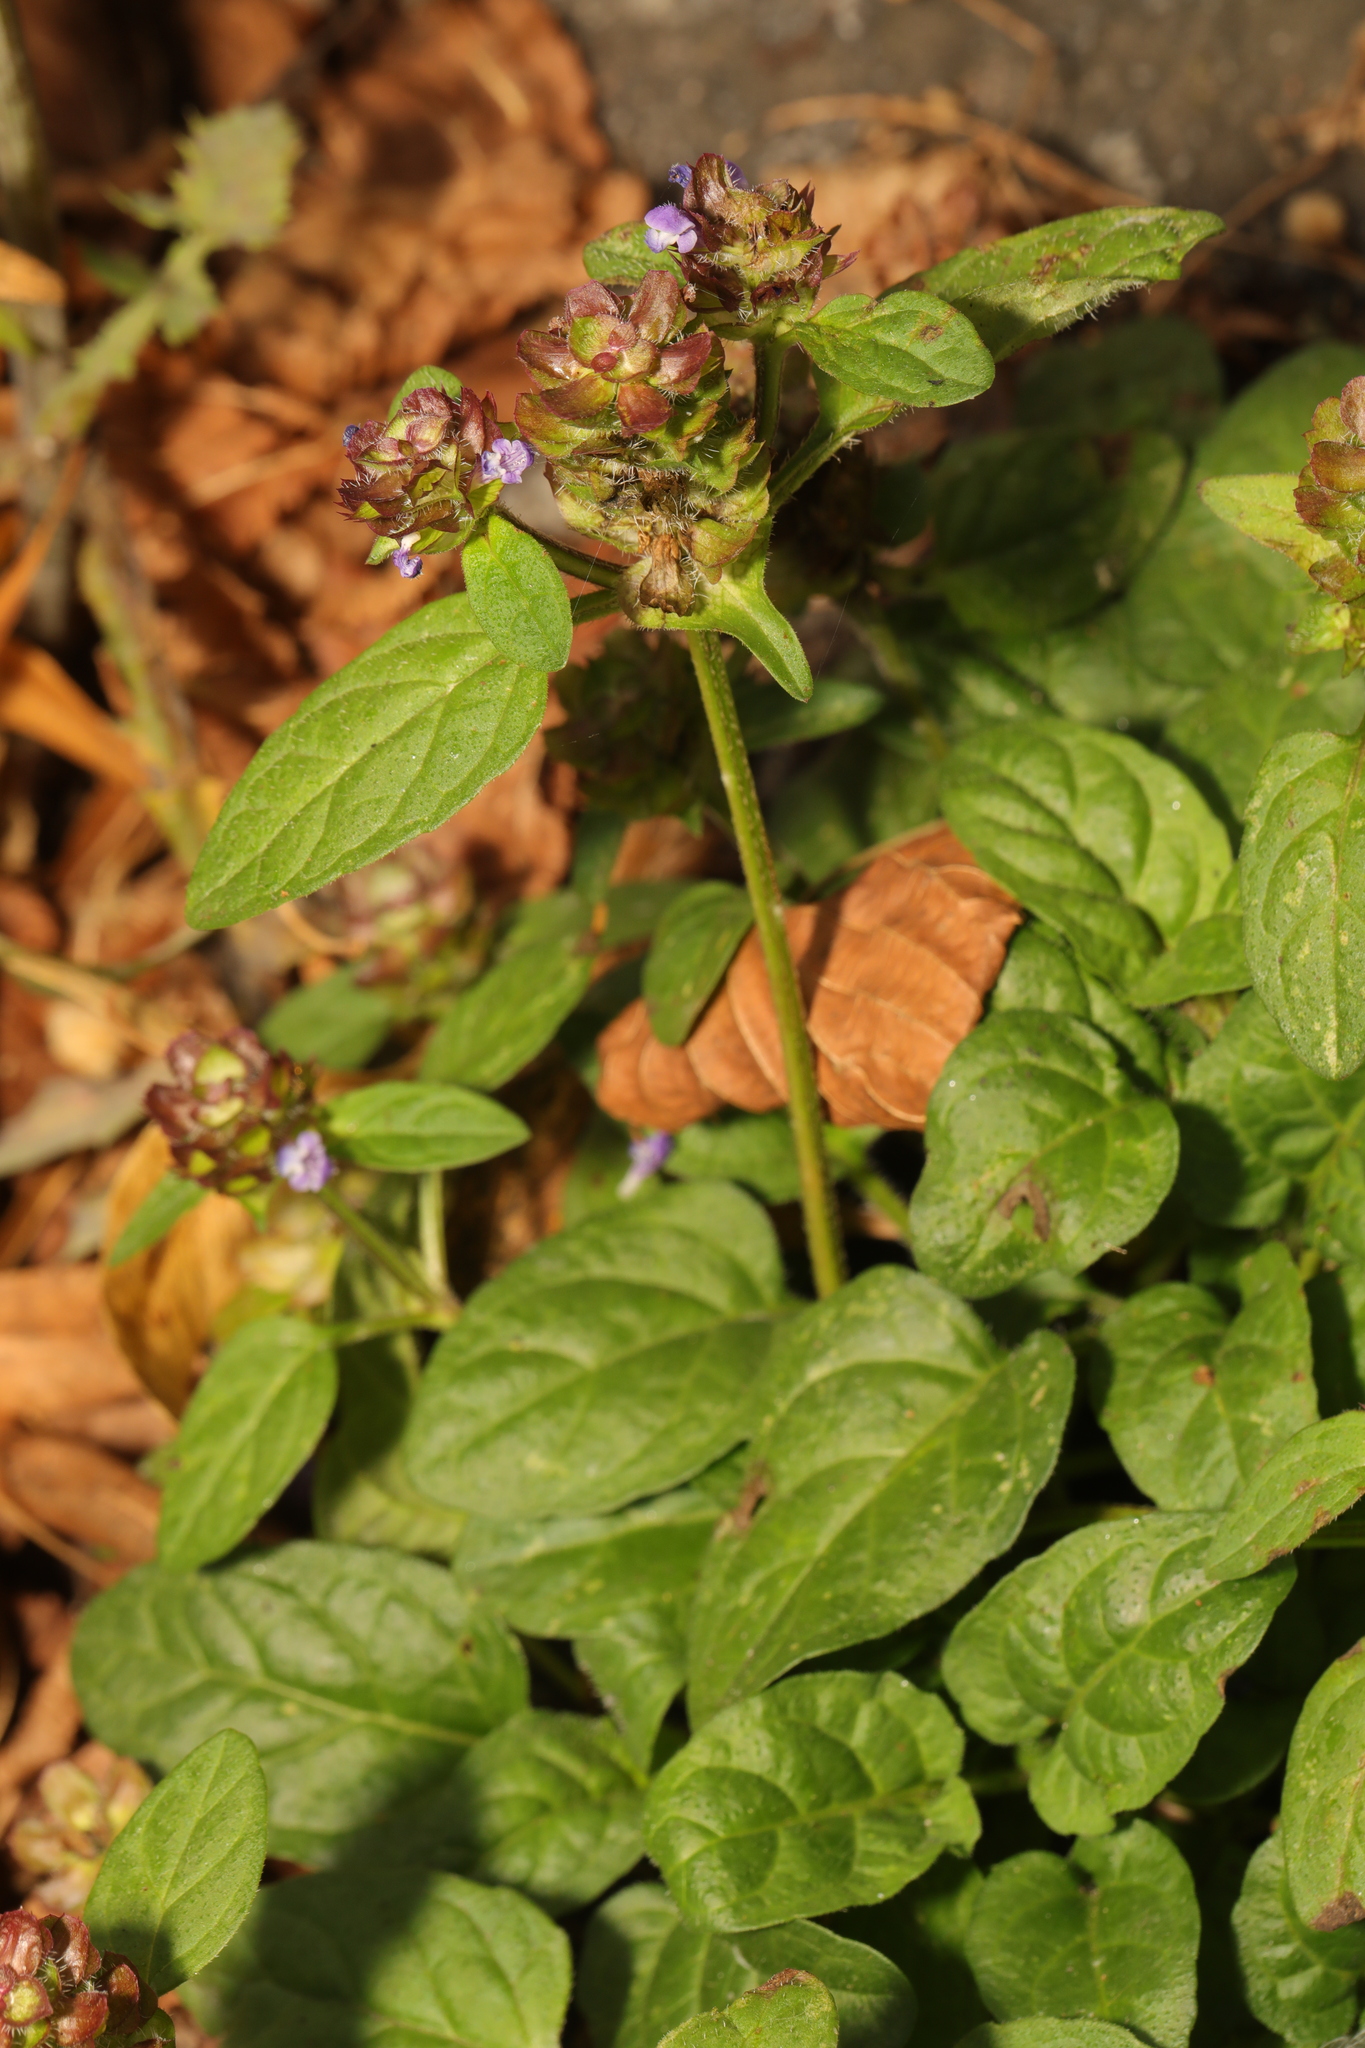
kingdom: Plantae
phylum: Tracheophyta
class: Magnoliopsida
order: Lamiales
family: Lamiaceae
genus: Prunella
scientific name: Prunella vulgaris
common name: Heal-all
